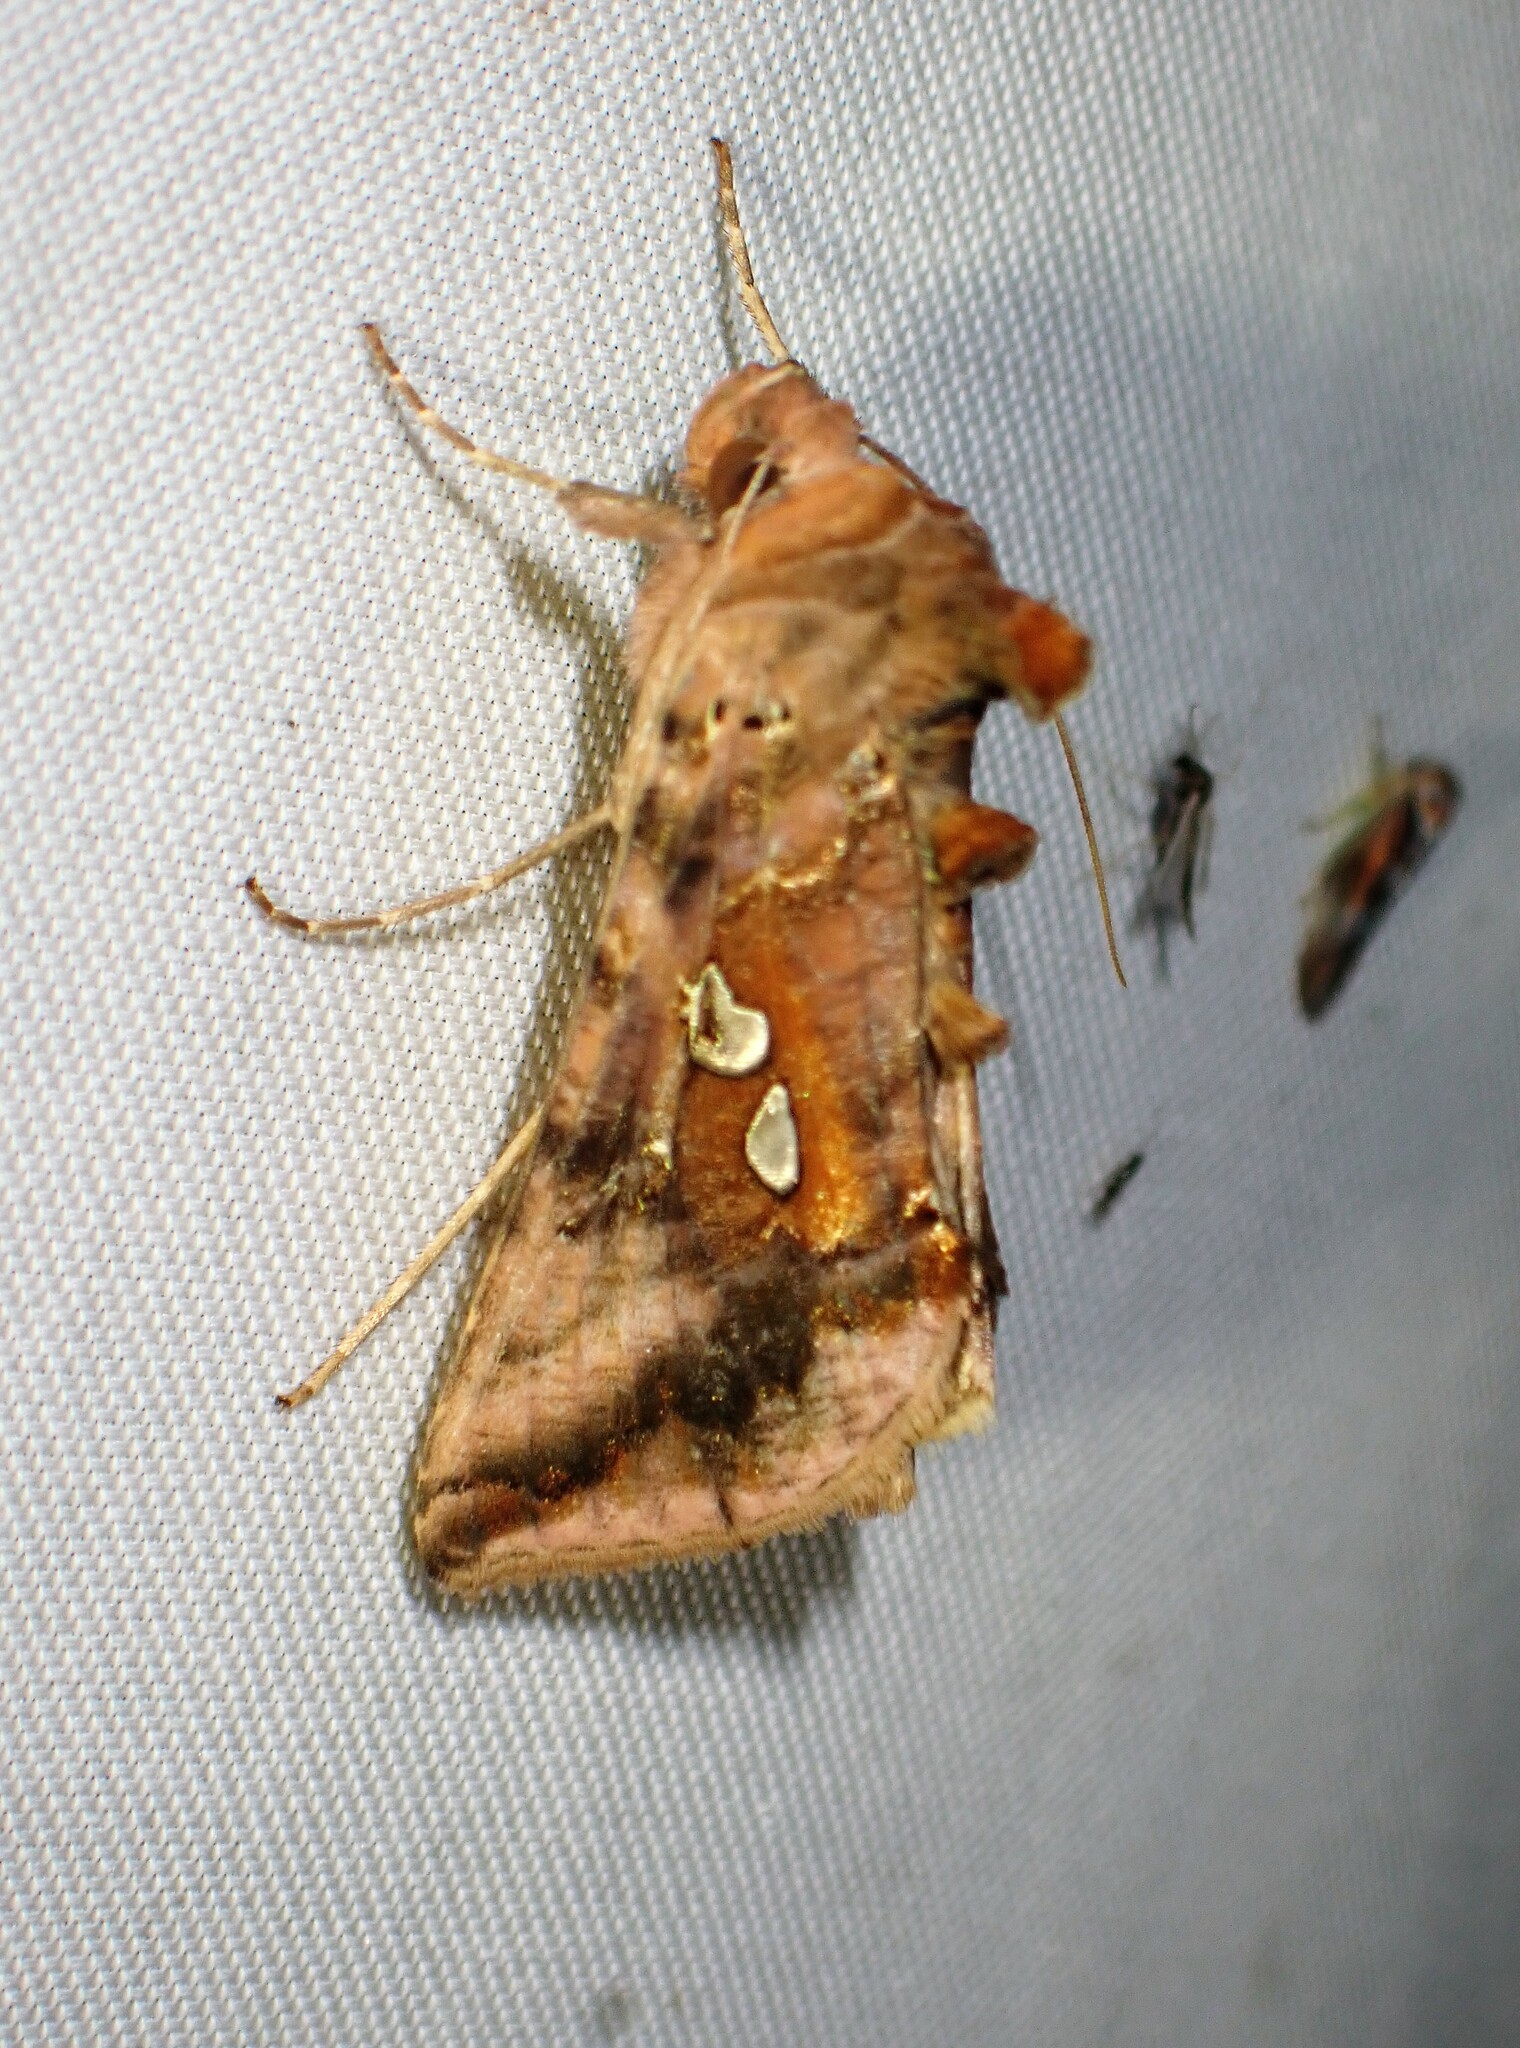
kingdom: Animalia
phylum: Arthropoda
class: Insecta
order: Lepidoptera
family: Noctuidae
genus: Autographa
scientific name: Autographa bimaculata
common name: Double-spotted spangle
